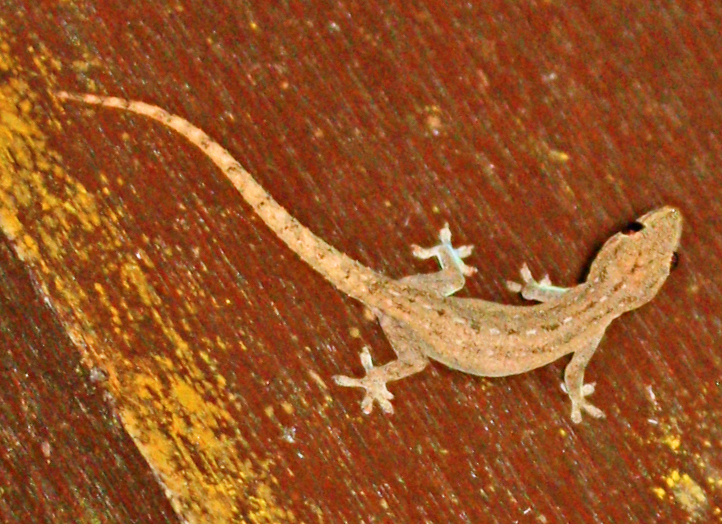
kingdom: Animalia
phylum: Chordata
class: Squamata
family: Gekkonidae
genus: Hemidactylus
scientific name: Hemidactylus frenatus
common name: Common house gecko
